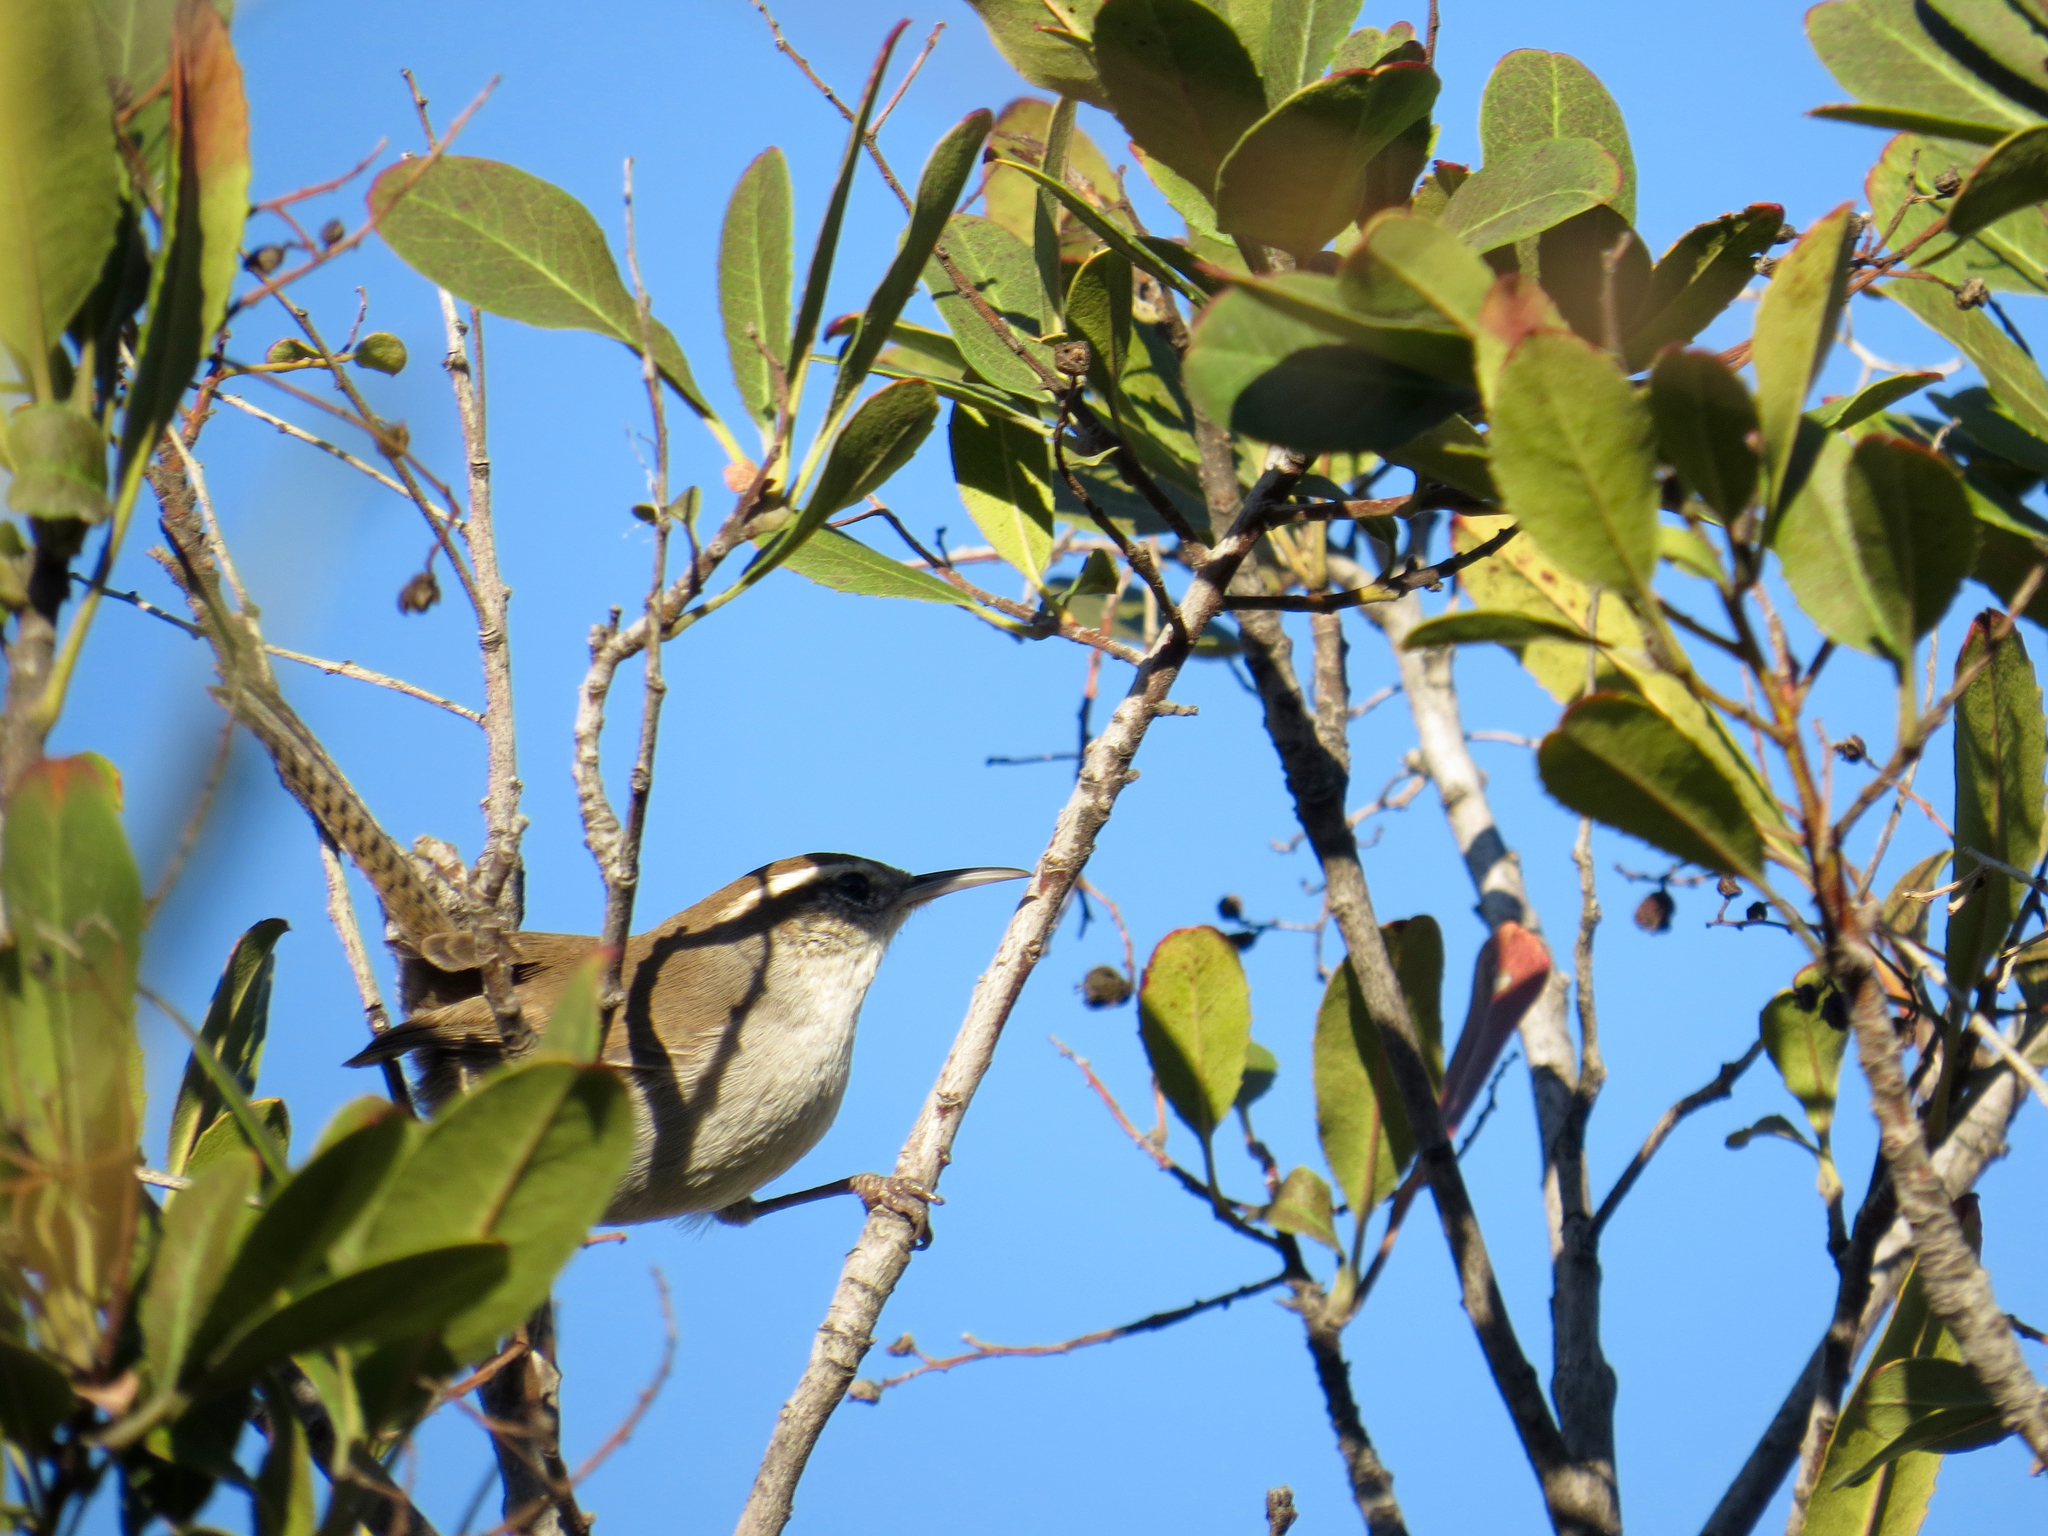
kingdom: Animalia
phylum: Chordata
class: Aves
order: Passeriformes
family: Troglodytidae
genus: Thryomanes
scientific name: Thryomanes bewickii
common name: Bewick's wren
